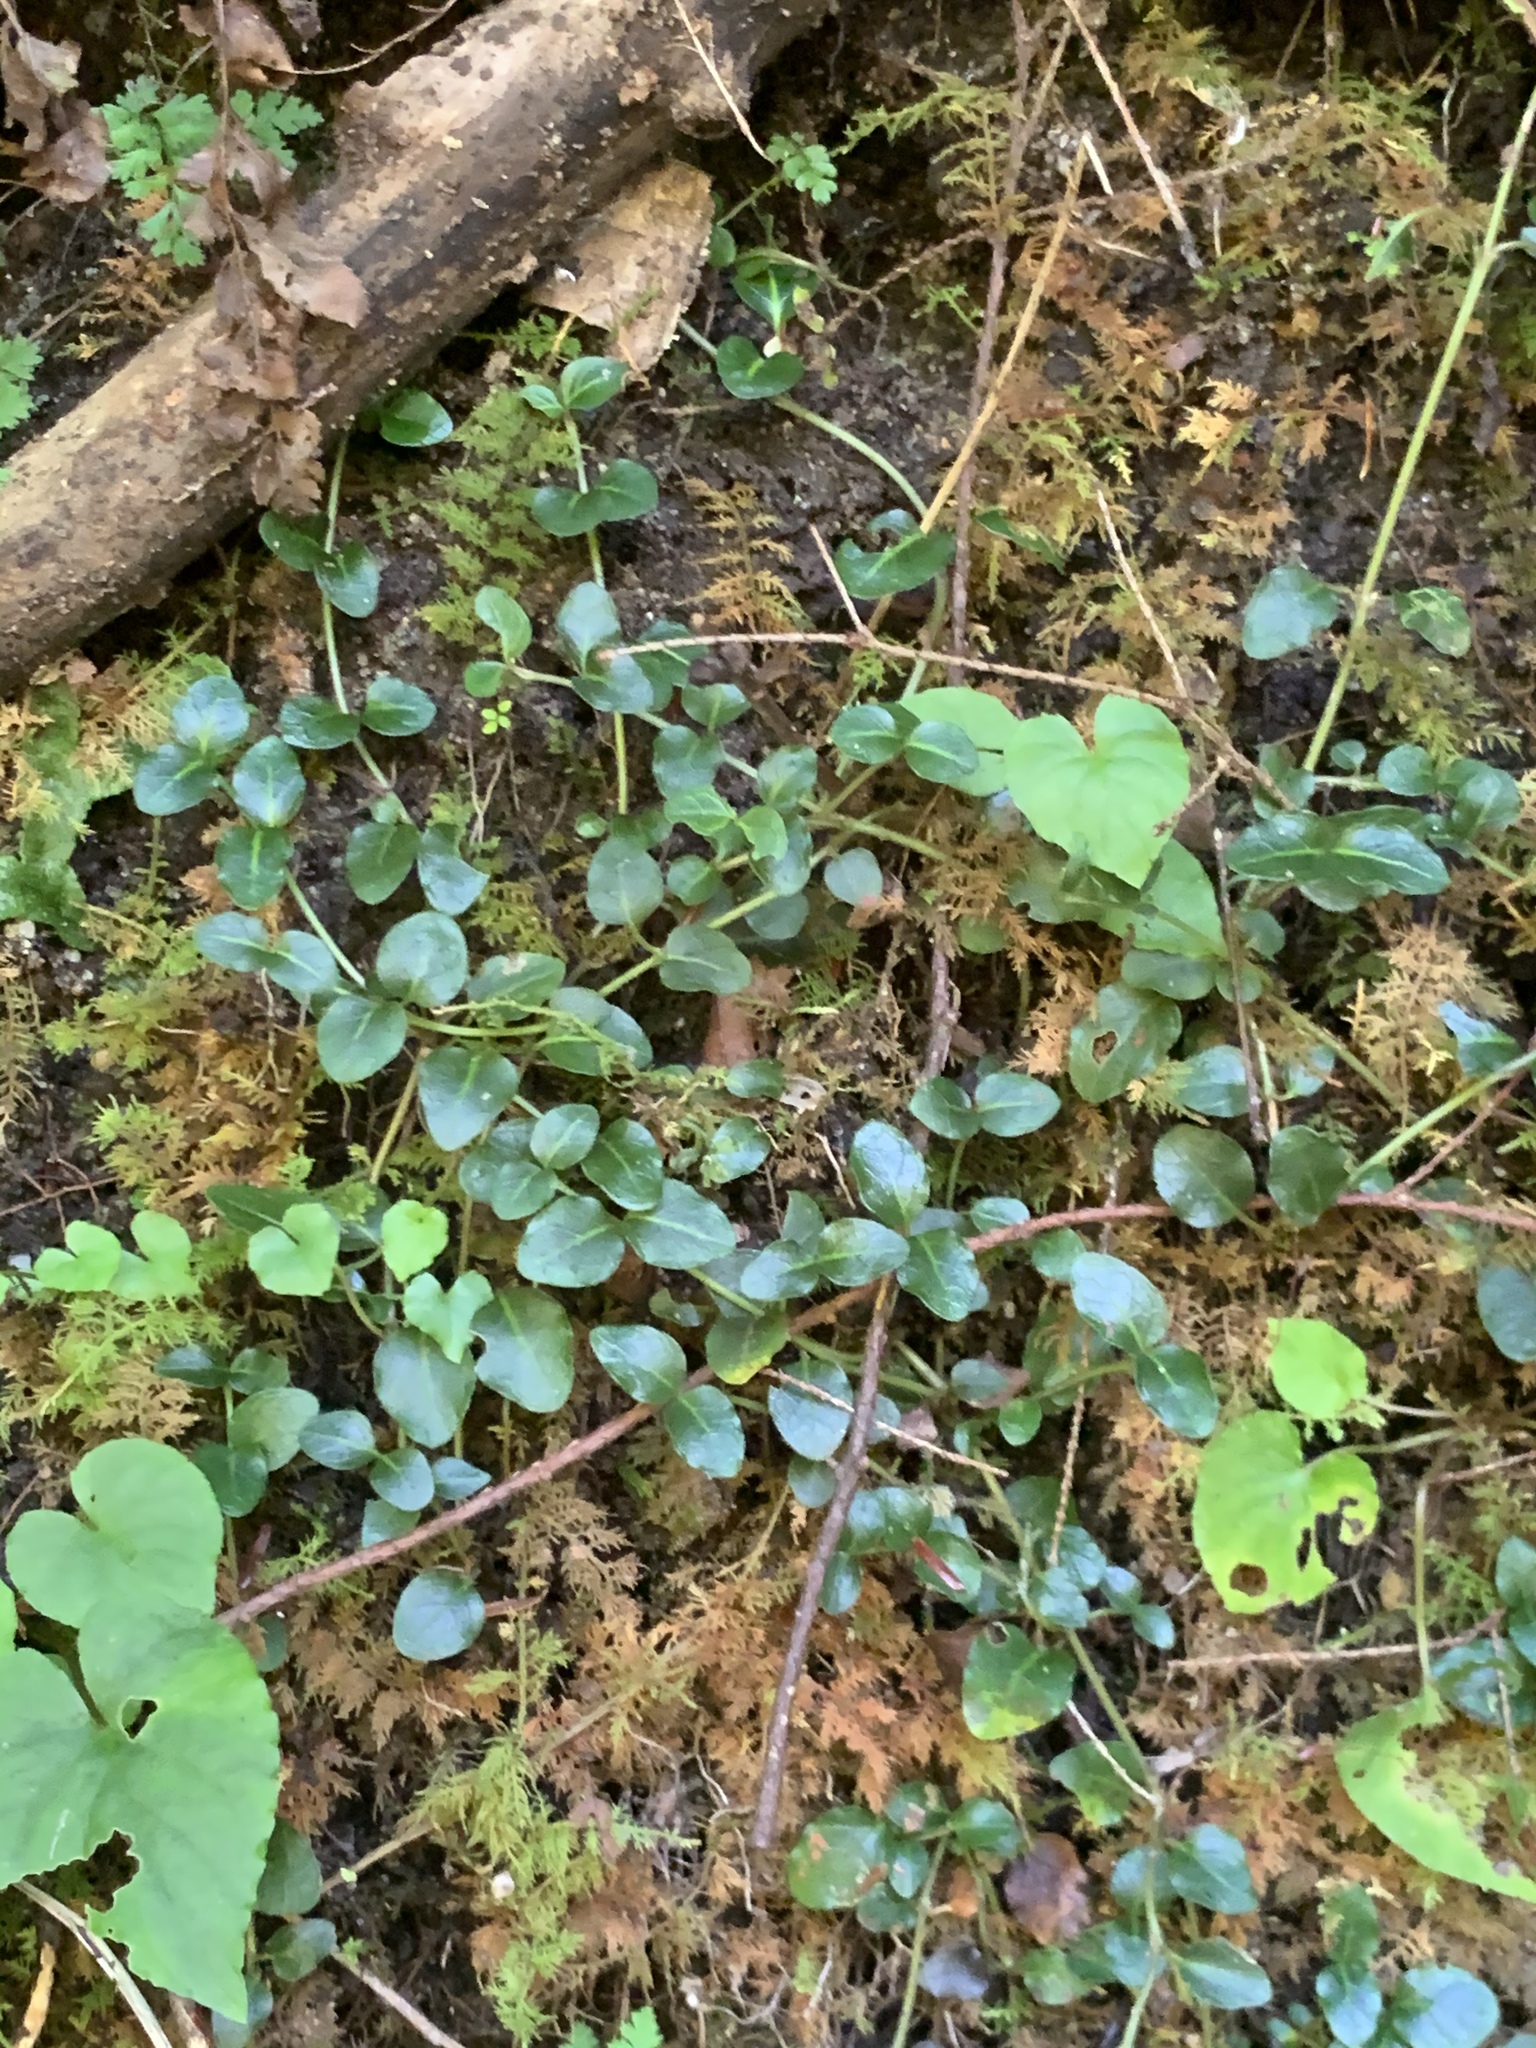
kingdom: Plantae
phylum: Tracheophyta
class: Magnoliopsida
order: Gentianales
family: Rubiaceae
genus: Mitchella
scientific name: Mitchella repens
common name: Partridge-berry
